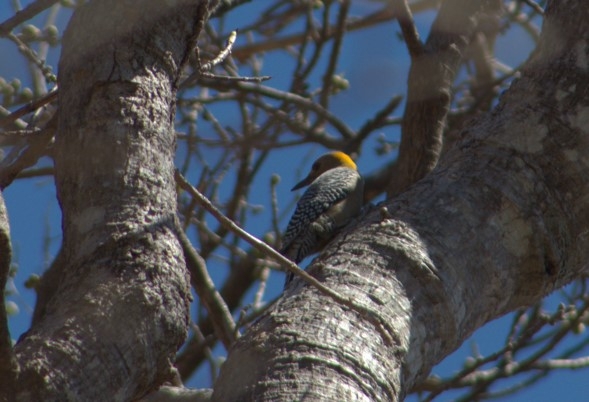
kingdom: Animalia
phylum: Chordata
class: Aves
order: Piciformes
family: Picidae
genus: Melanerpes
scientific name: Melanerpes aurifrons
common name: Golden-fronted woodpecker
